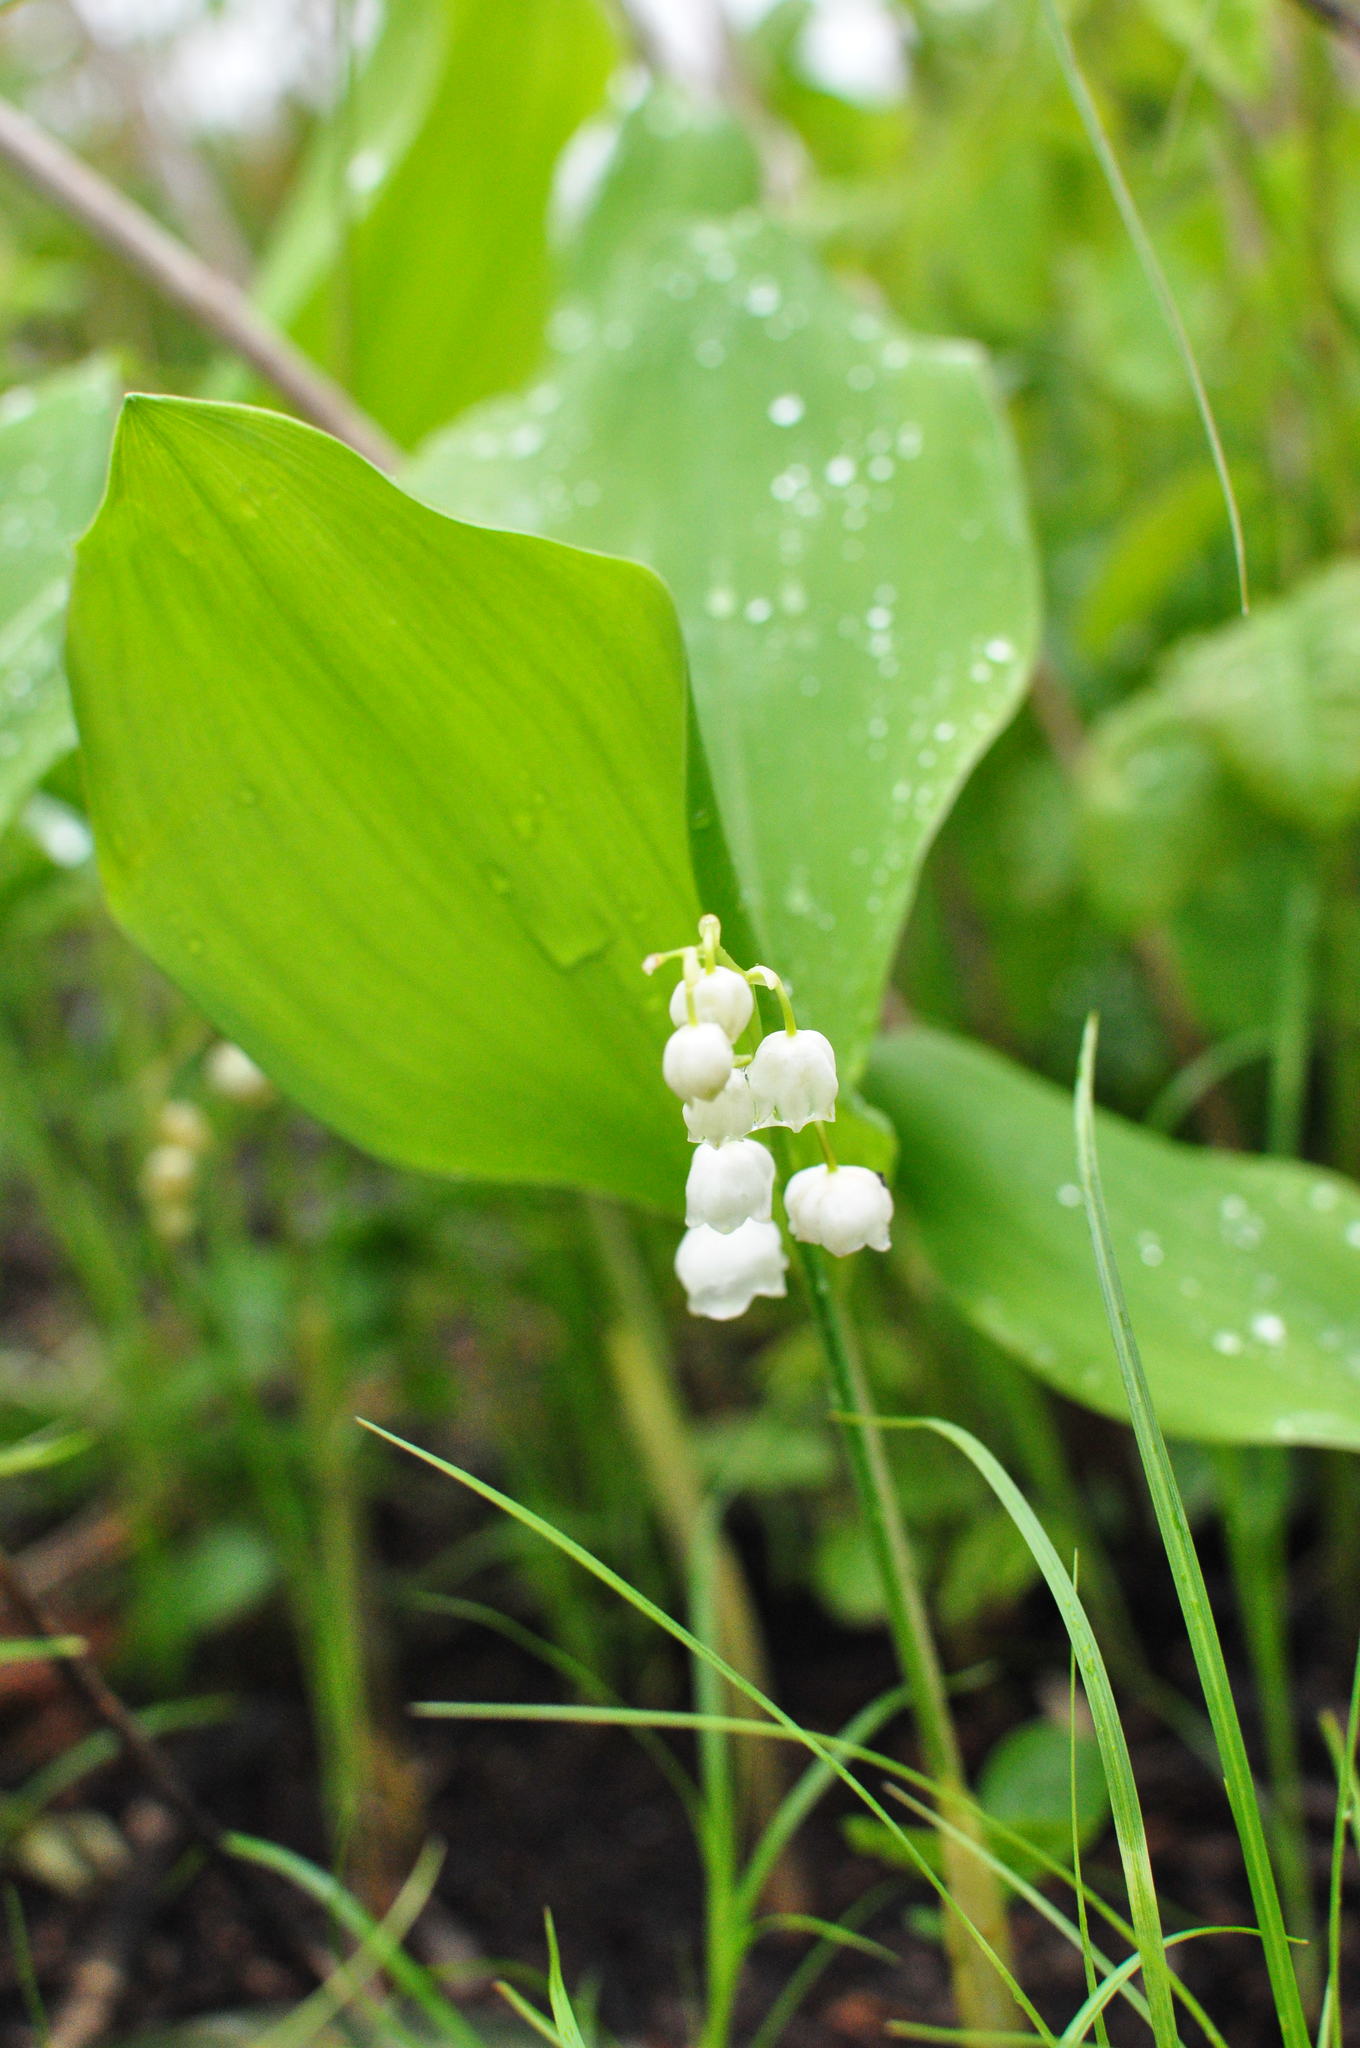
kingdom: Plantae
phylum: Tracheophyta
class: Liliopsida
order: Asparagales
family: Asparagaceae
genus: Convallaria
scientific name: Convallaria keiskei
